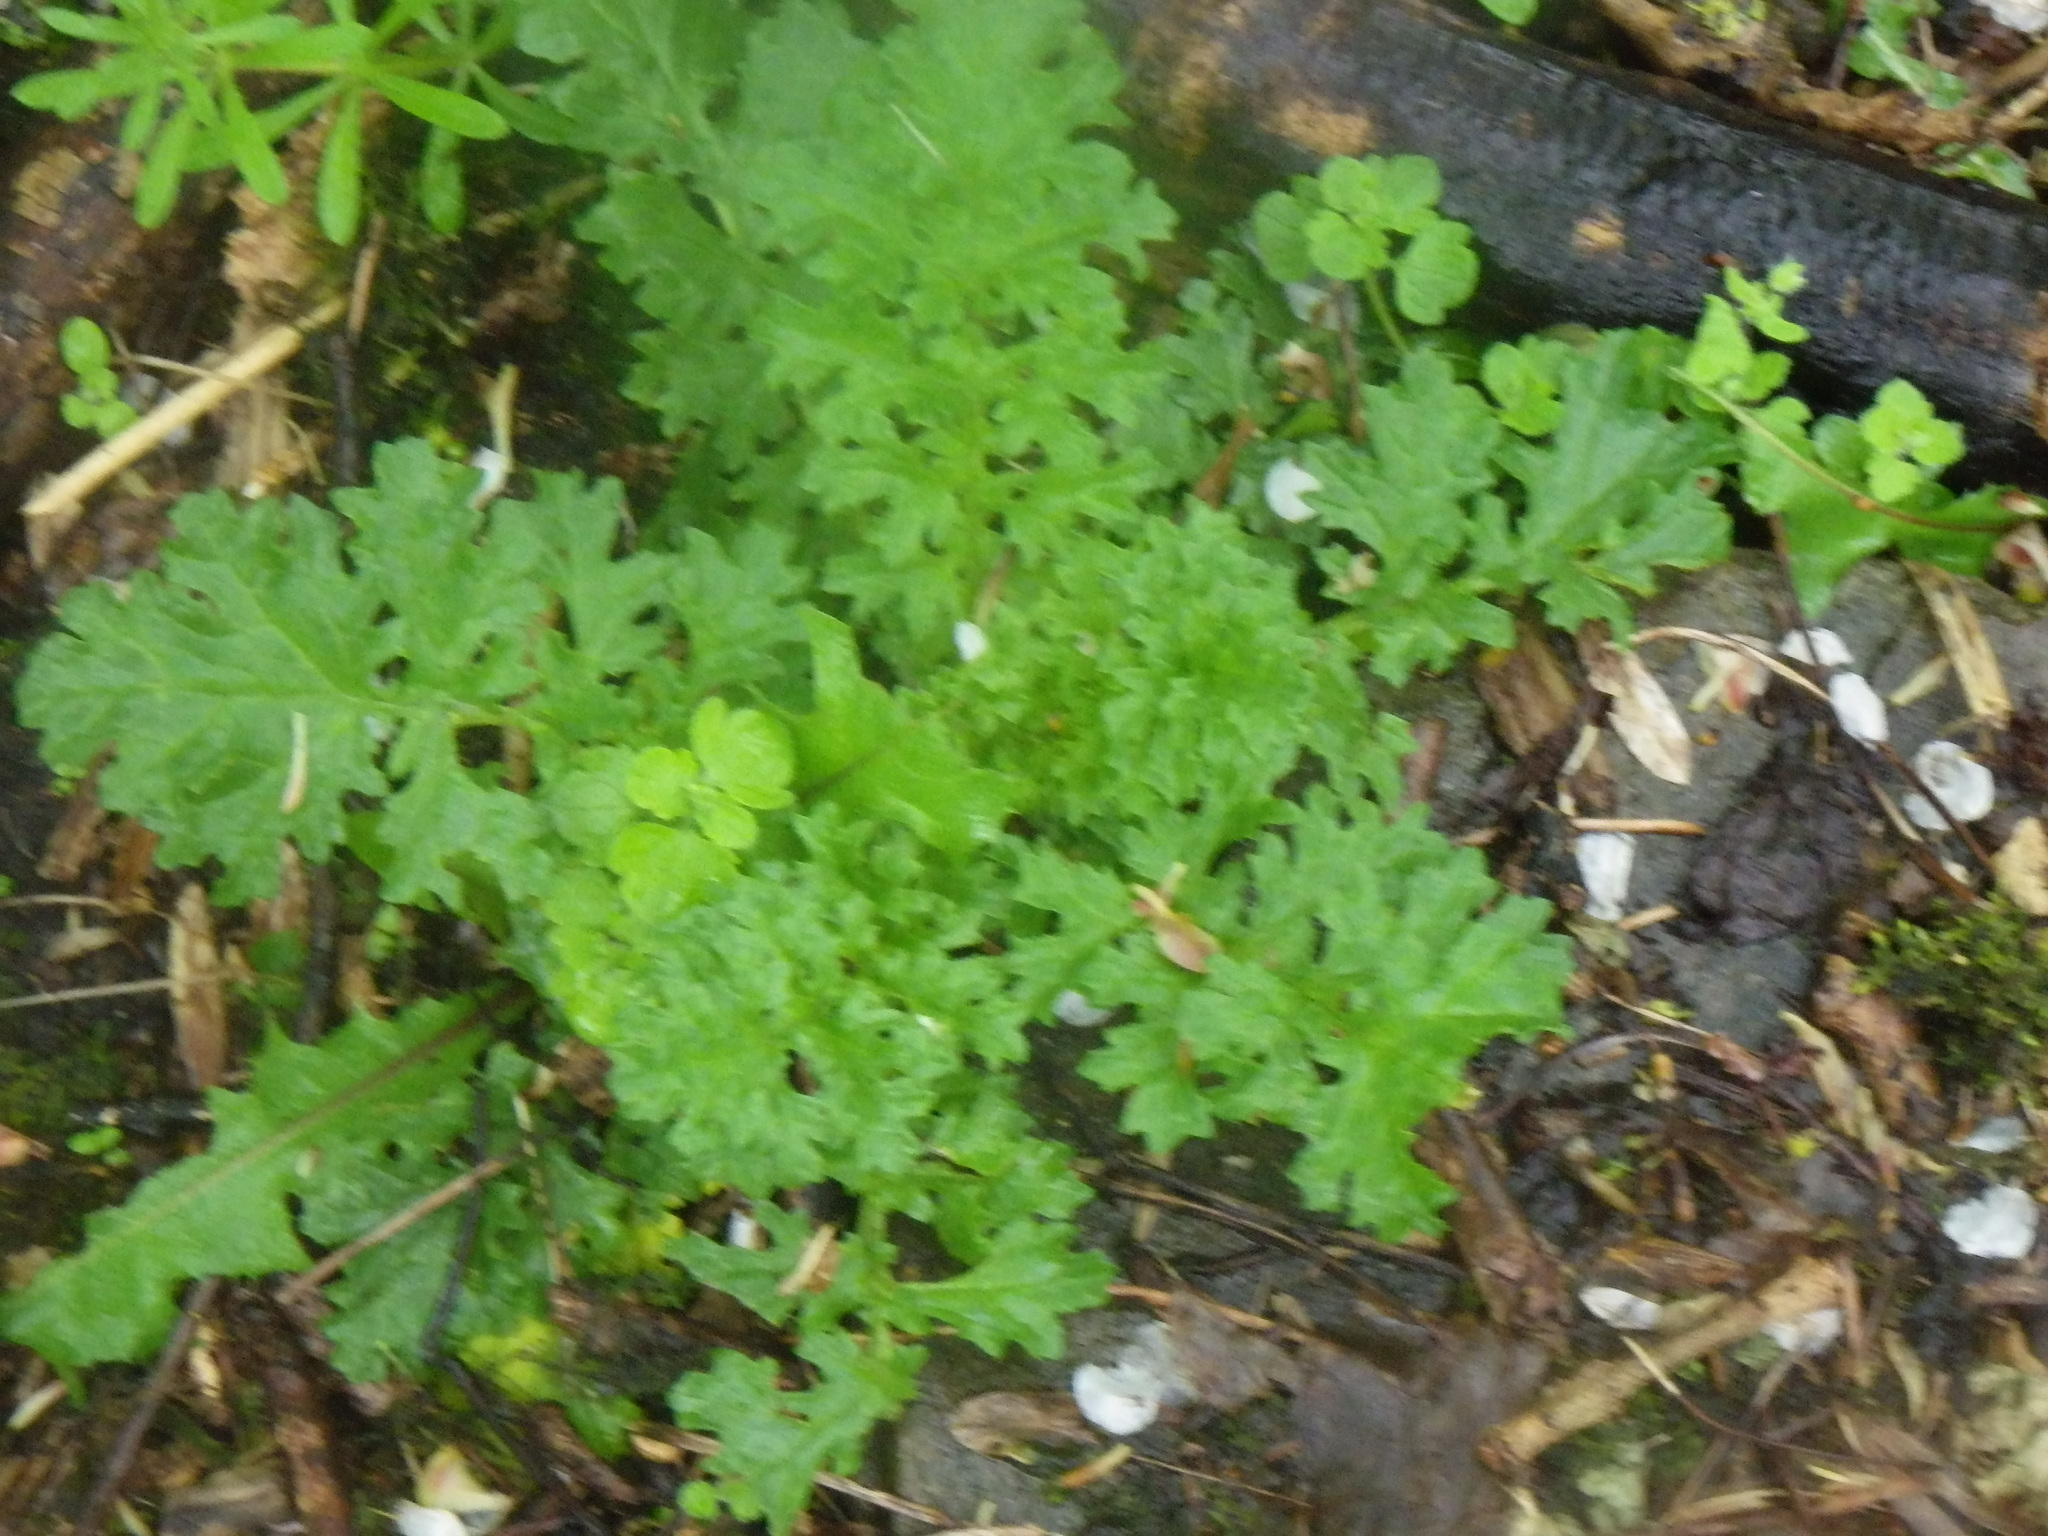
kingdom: Plantae
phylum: Tracheophyta
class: Magnoliopsida
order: Asterales
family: Asteraceae
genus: Jacobaea
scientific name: Jacobaea vulgaris
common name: Stinking willie
